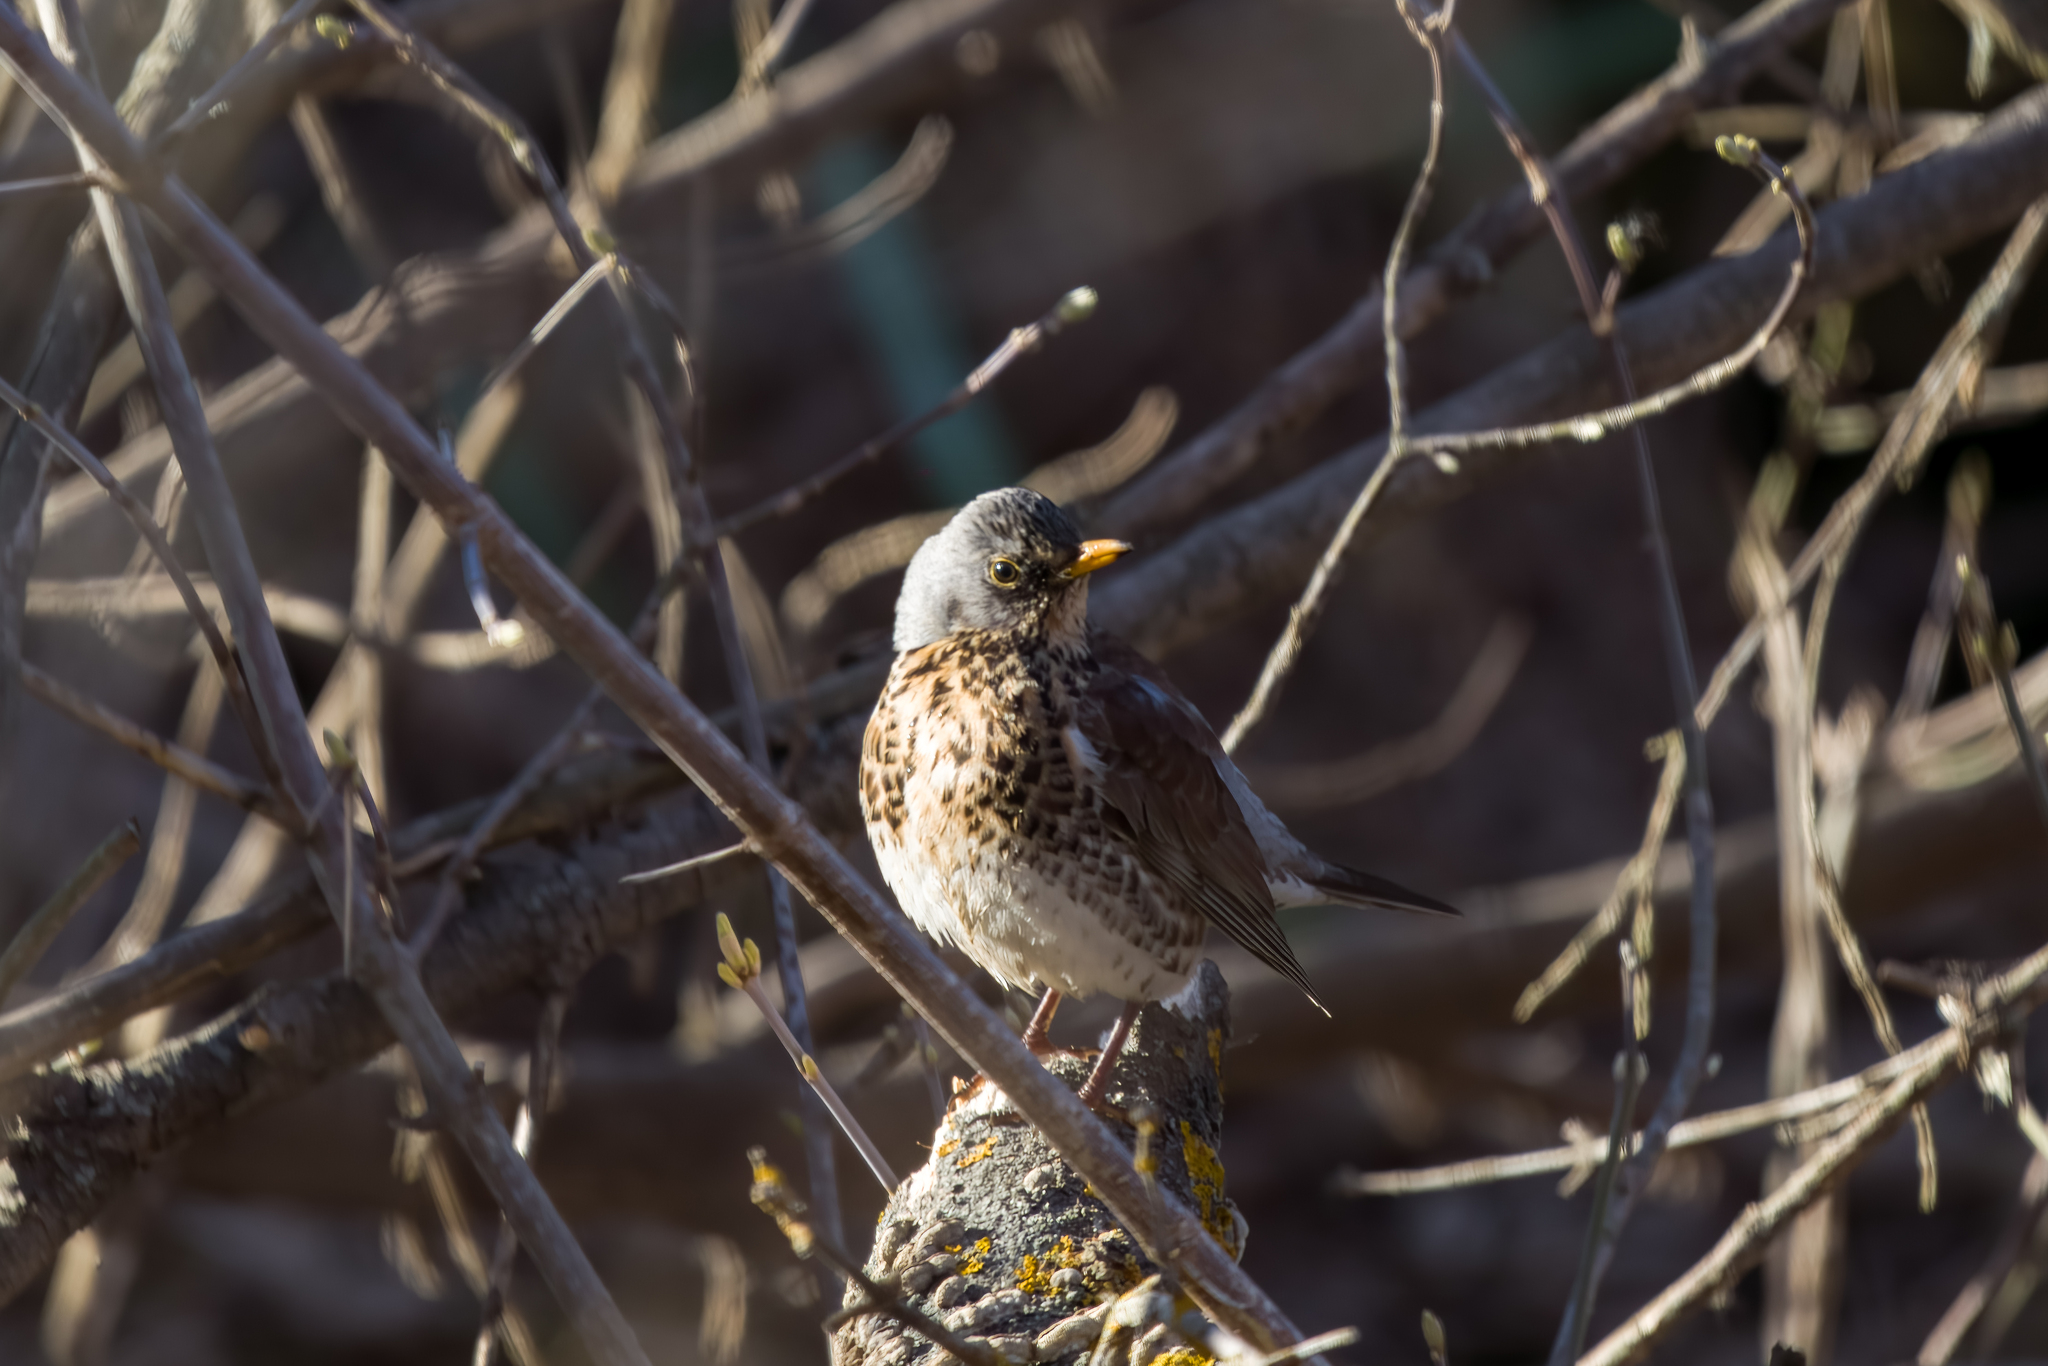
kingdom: Animalia
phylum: Chordata
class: Aves
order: Passeriformes
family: Turdidae
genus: Turdus
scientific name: Turdus pilaris
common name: Fieldfare
